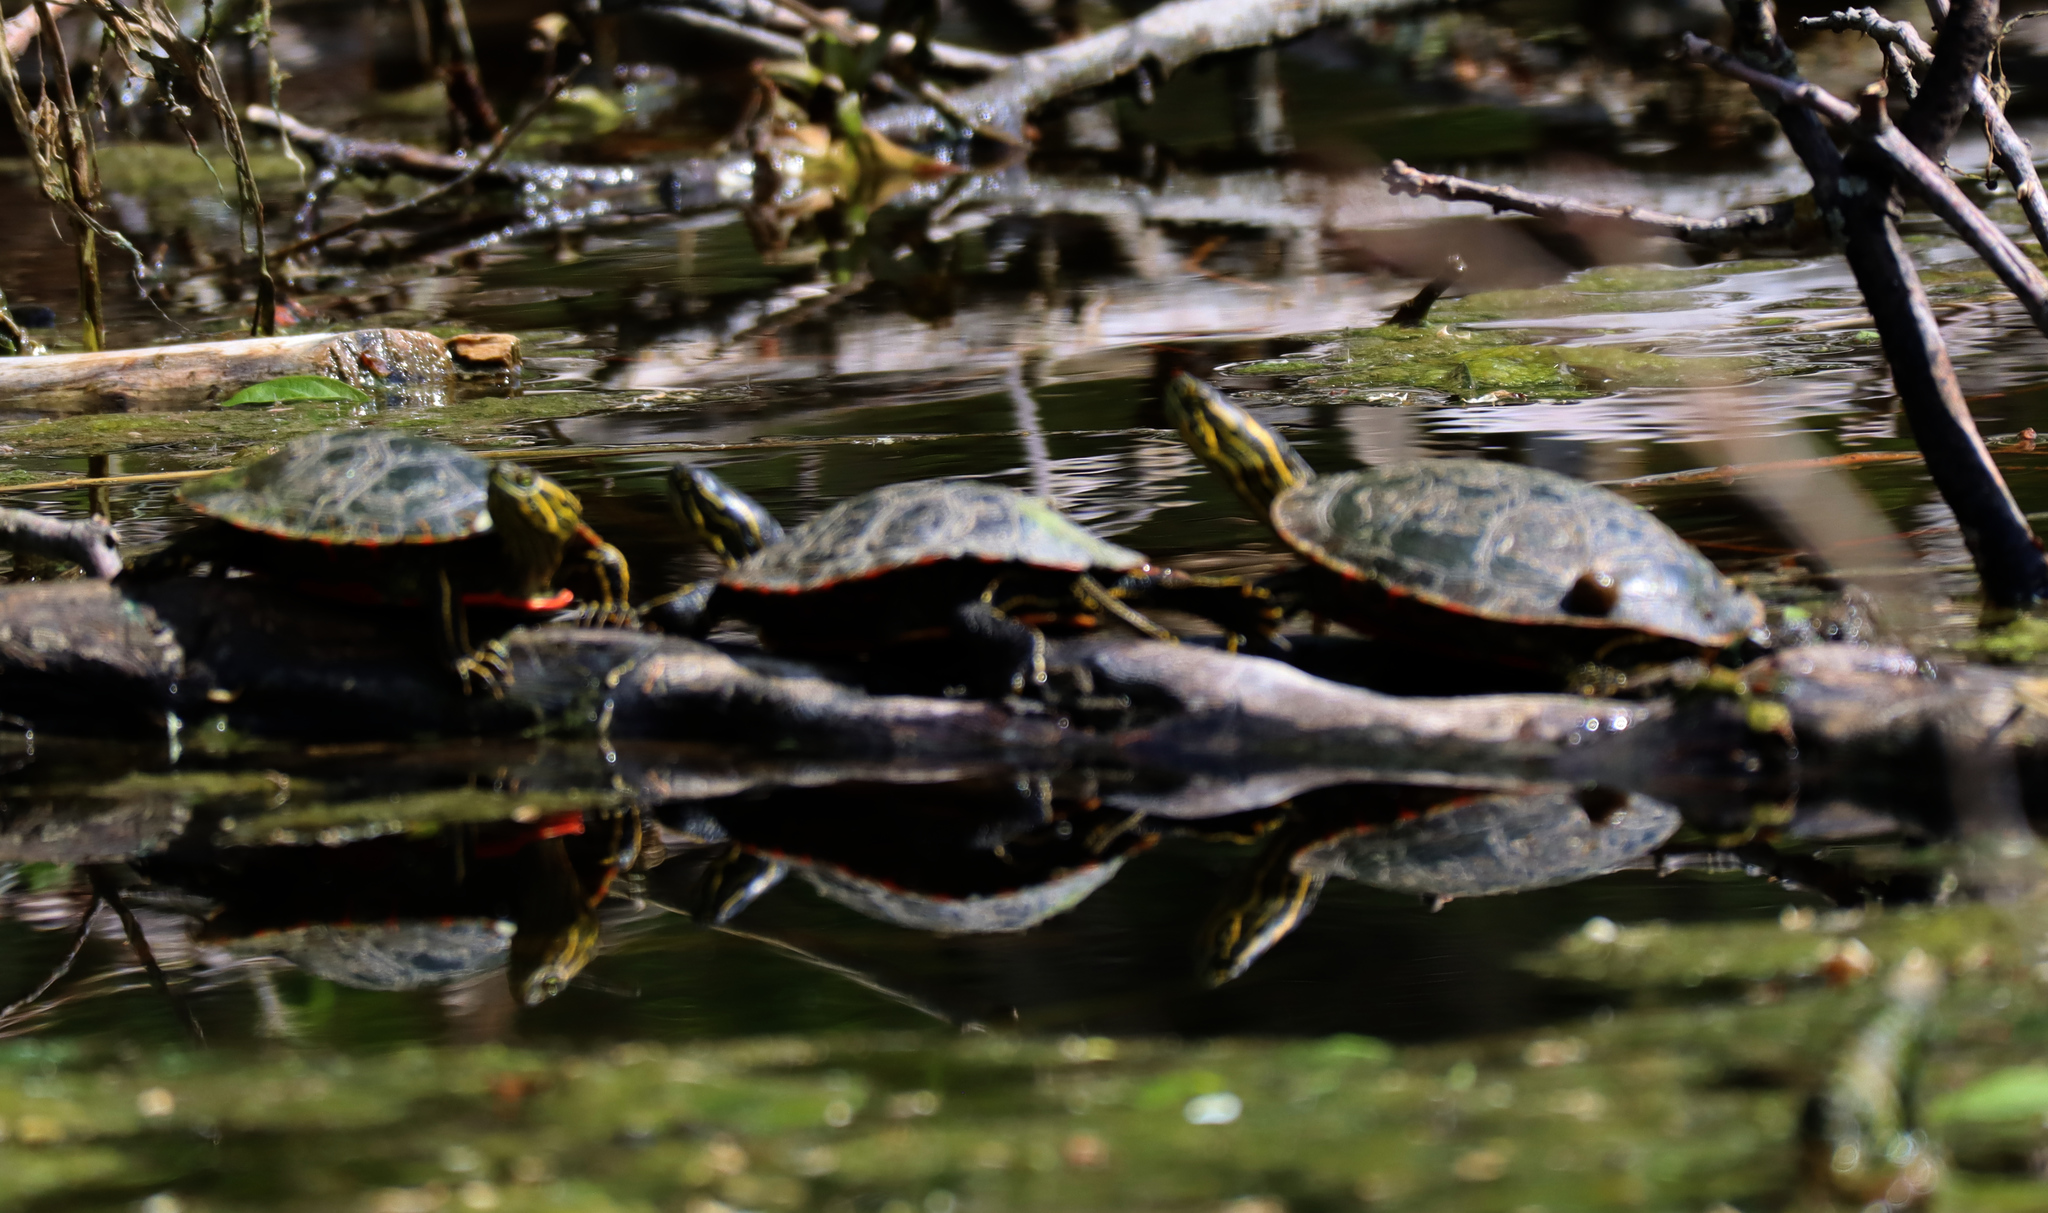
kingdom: Animalia
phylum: Chordata
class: Testudines
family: Emydidae
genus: Chrysemys
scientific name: Chrysemys picta
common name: Painted turtle
